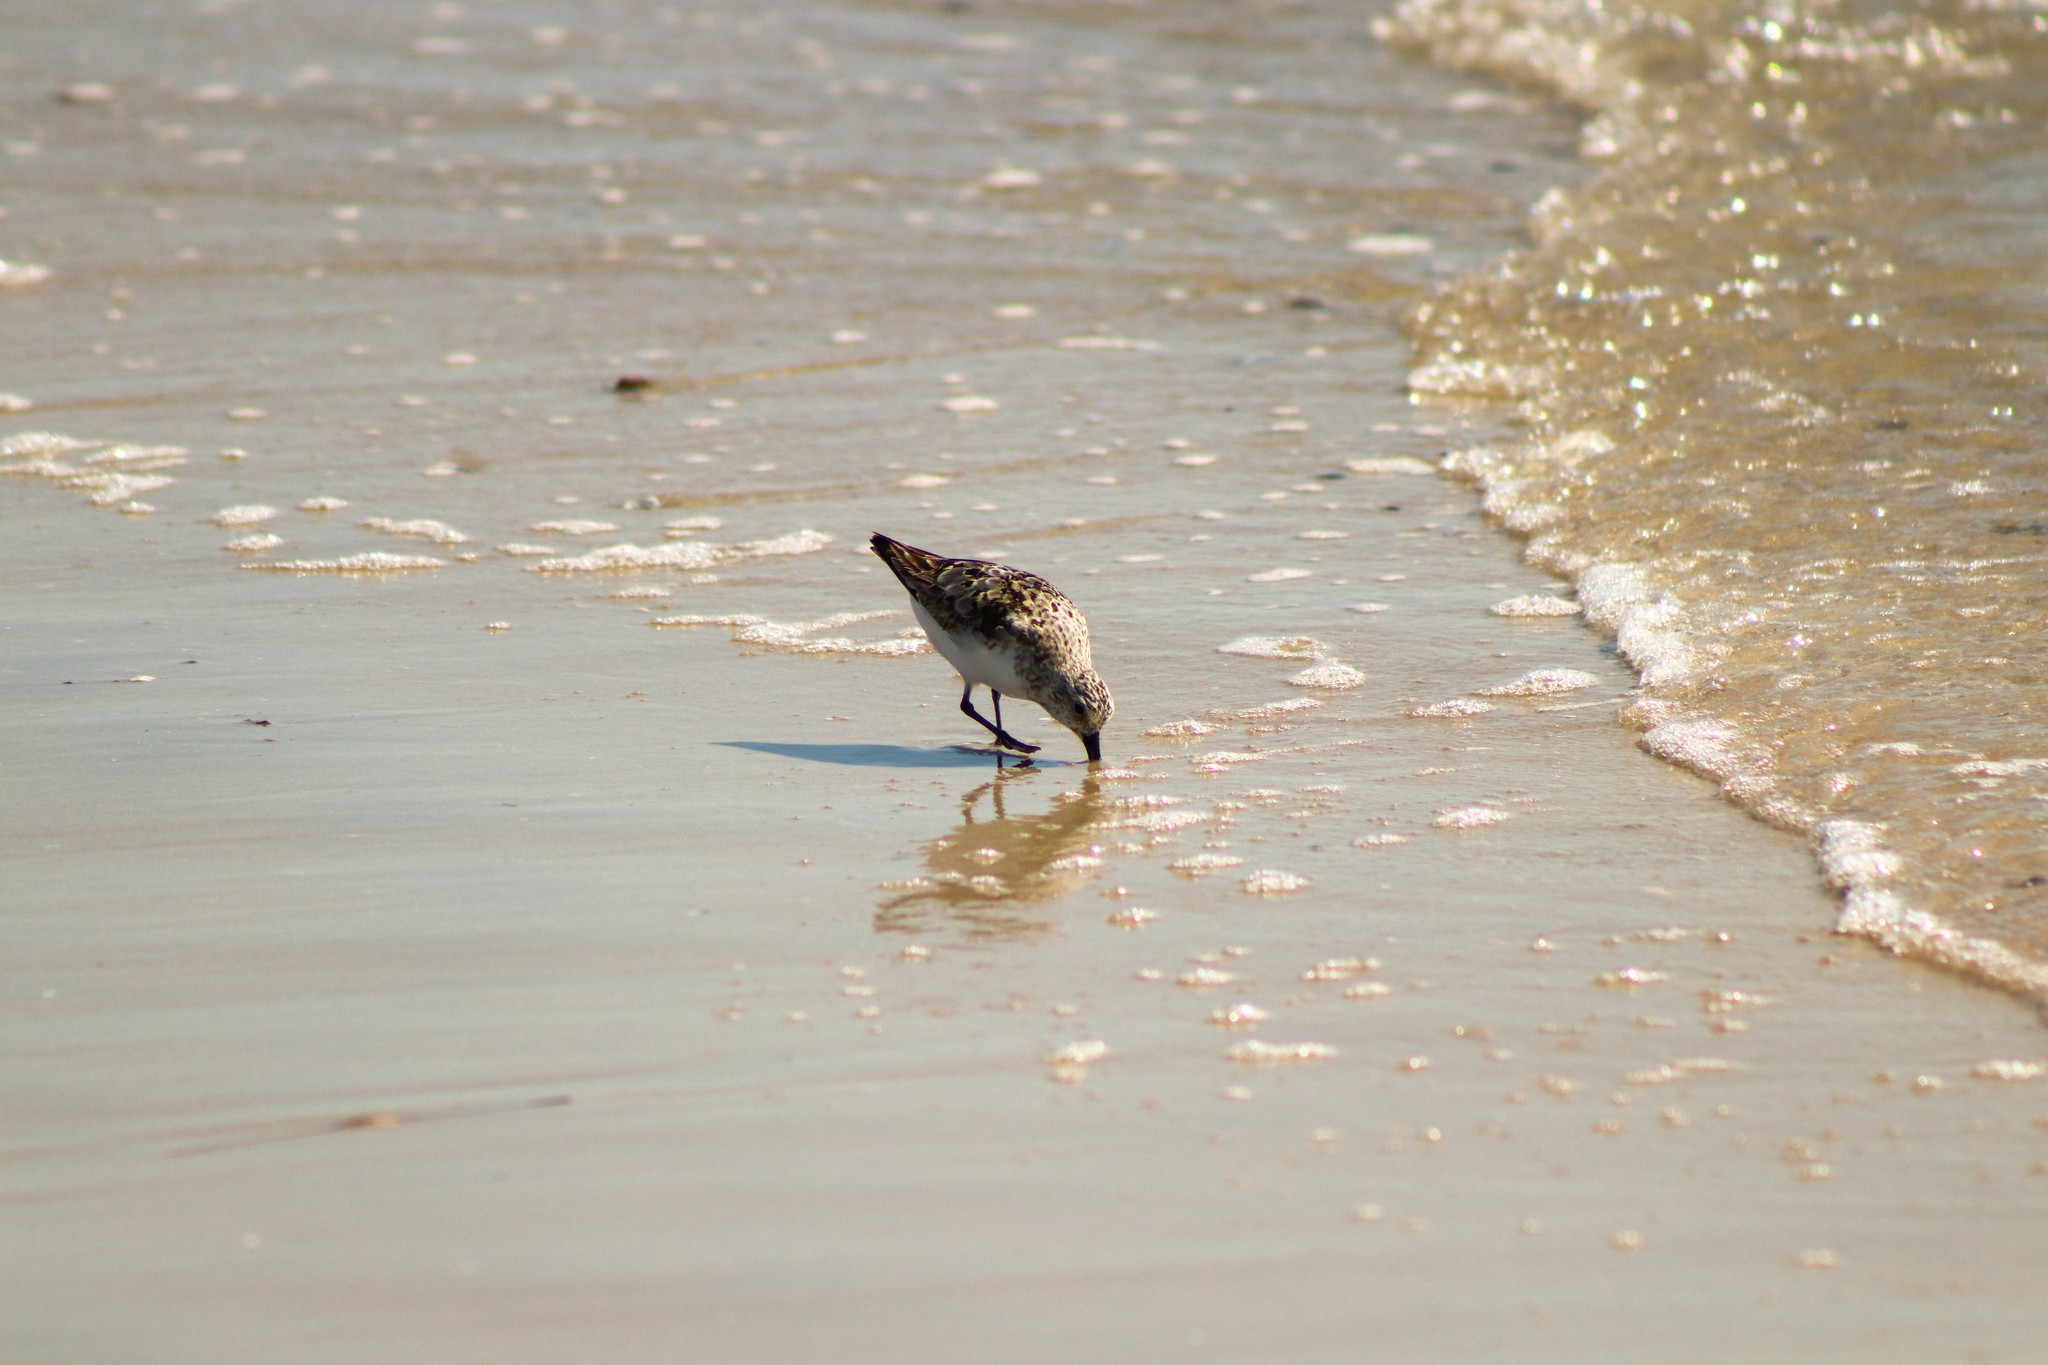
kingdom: Animalia
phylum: Chordata
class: Aves
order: Charadriiformes
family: Scolopacidae
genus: Calidris
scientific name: Calidris alba
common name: Sanderling
